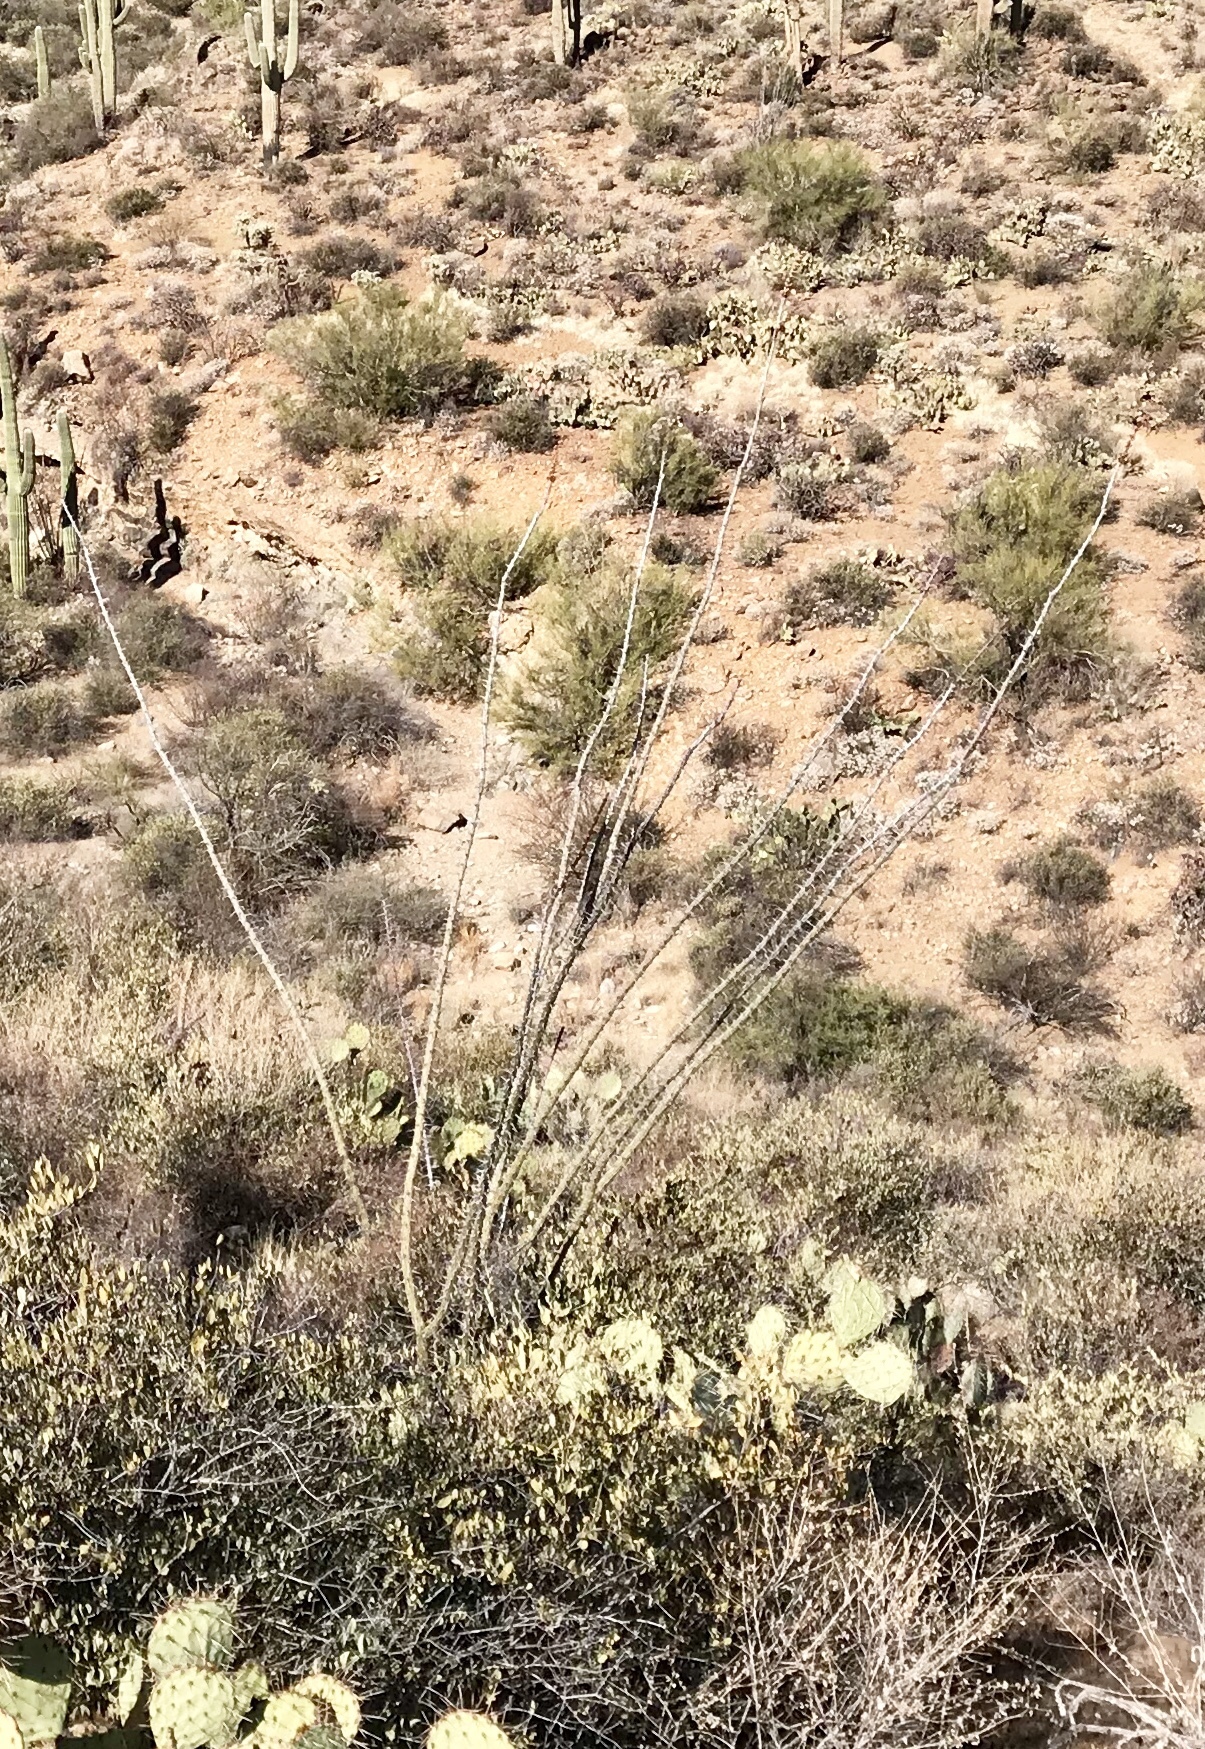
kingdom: Plantae
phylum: Tracheophyta
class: Magnoliopsida
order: Ericales
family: Fouquieriaceae
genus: Fouquieria
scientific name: Fouquieria splendens
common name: Vine-cactus
